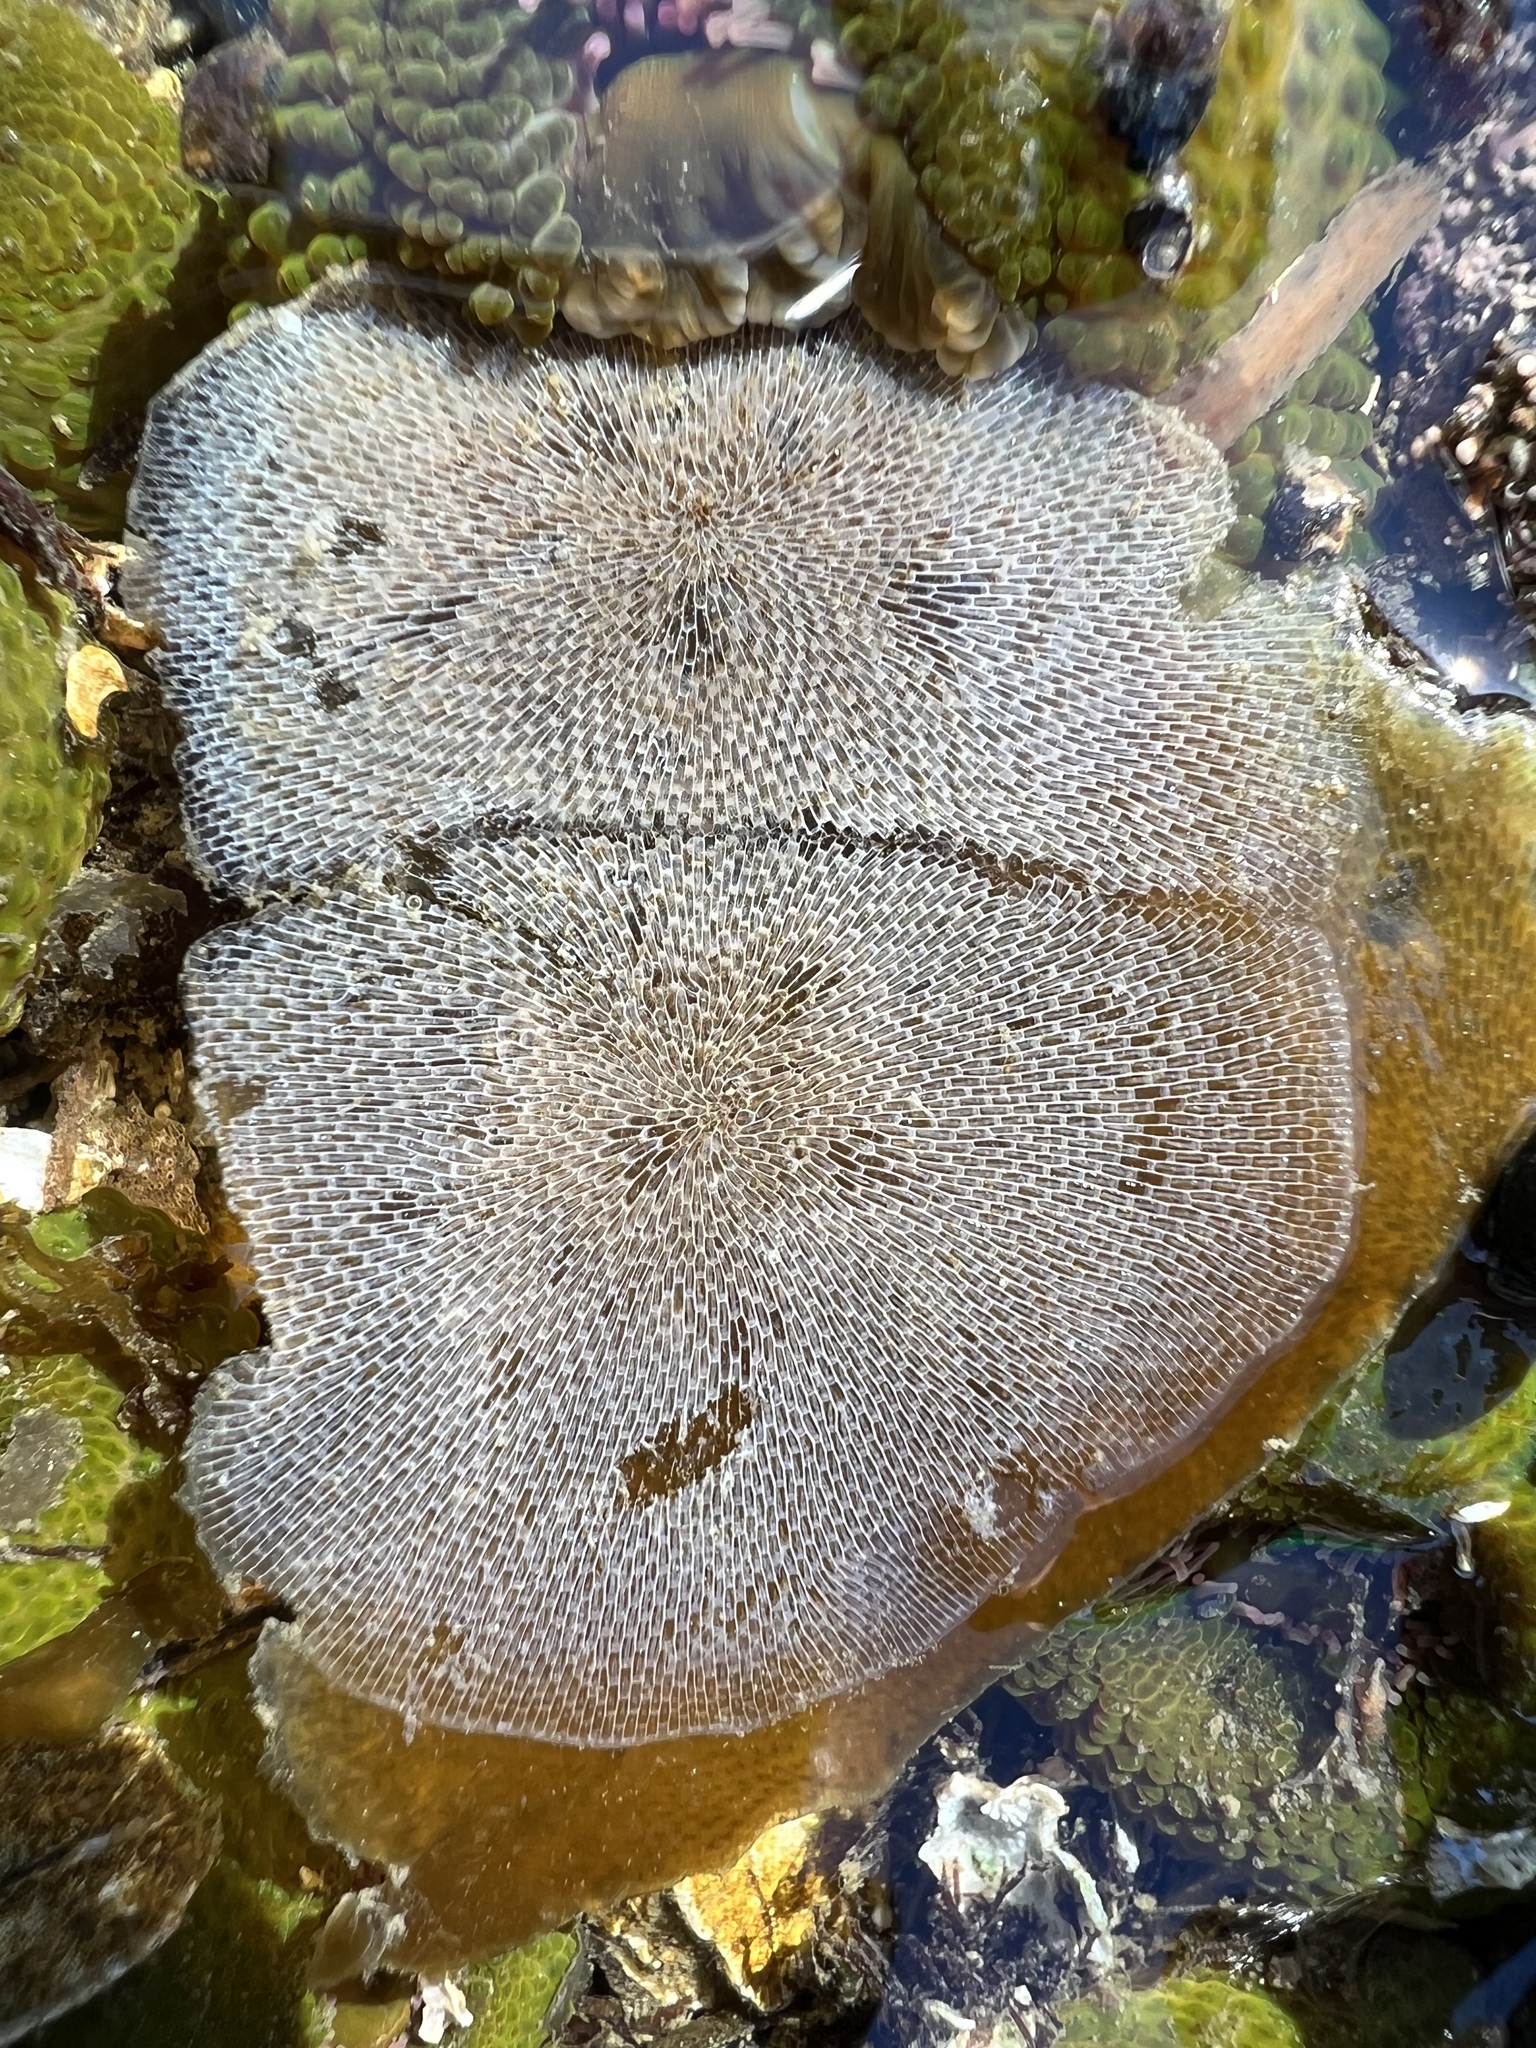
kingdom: Animalia
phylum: Bryozoa
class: Gymnolaemata
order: Cheilostomatida
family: Membraniporidae
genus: Membranipora
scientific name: Membranipora membranacea
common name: Sea mat
